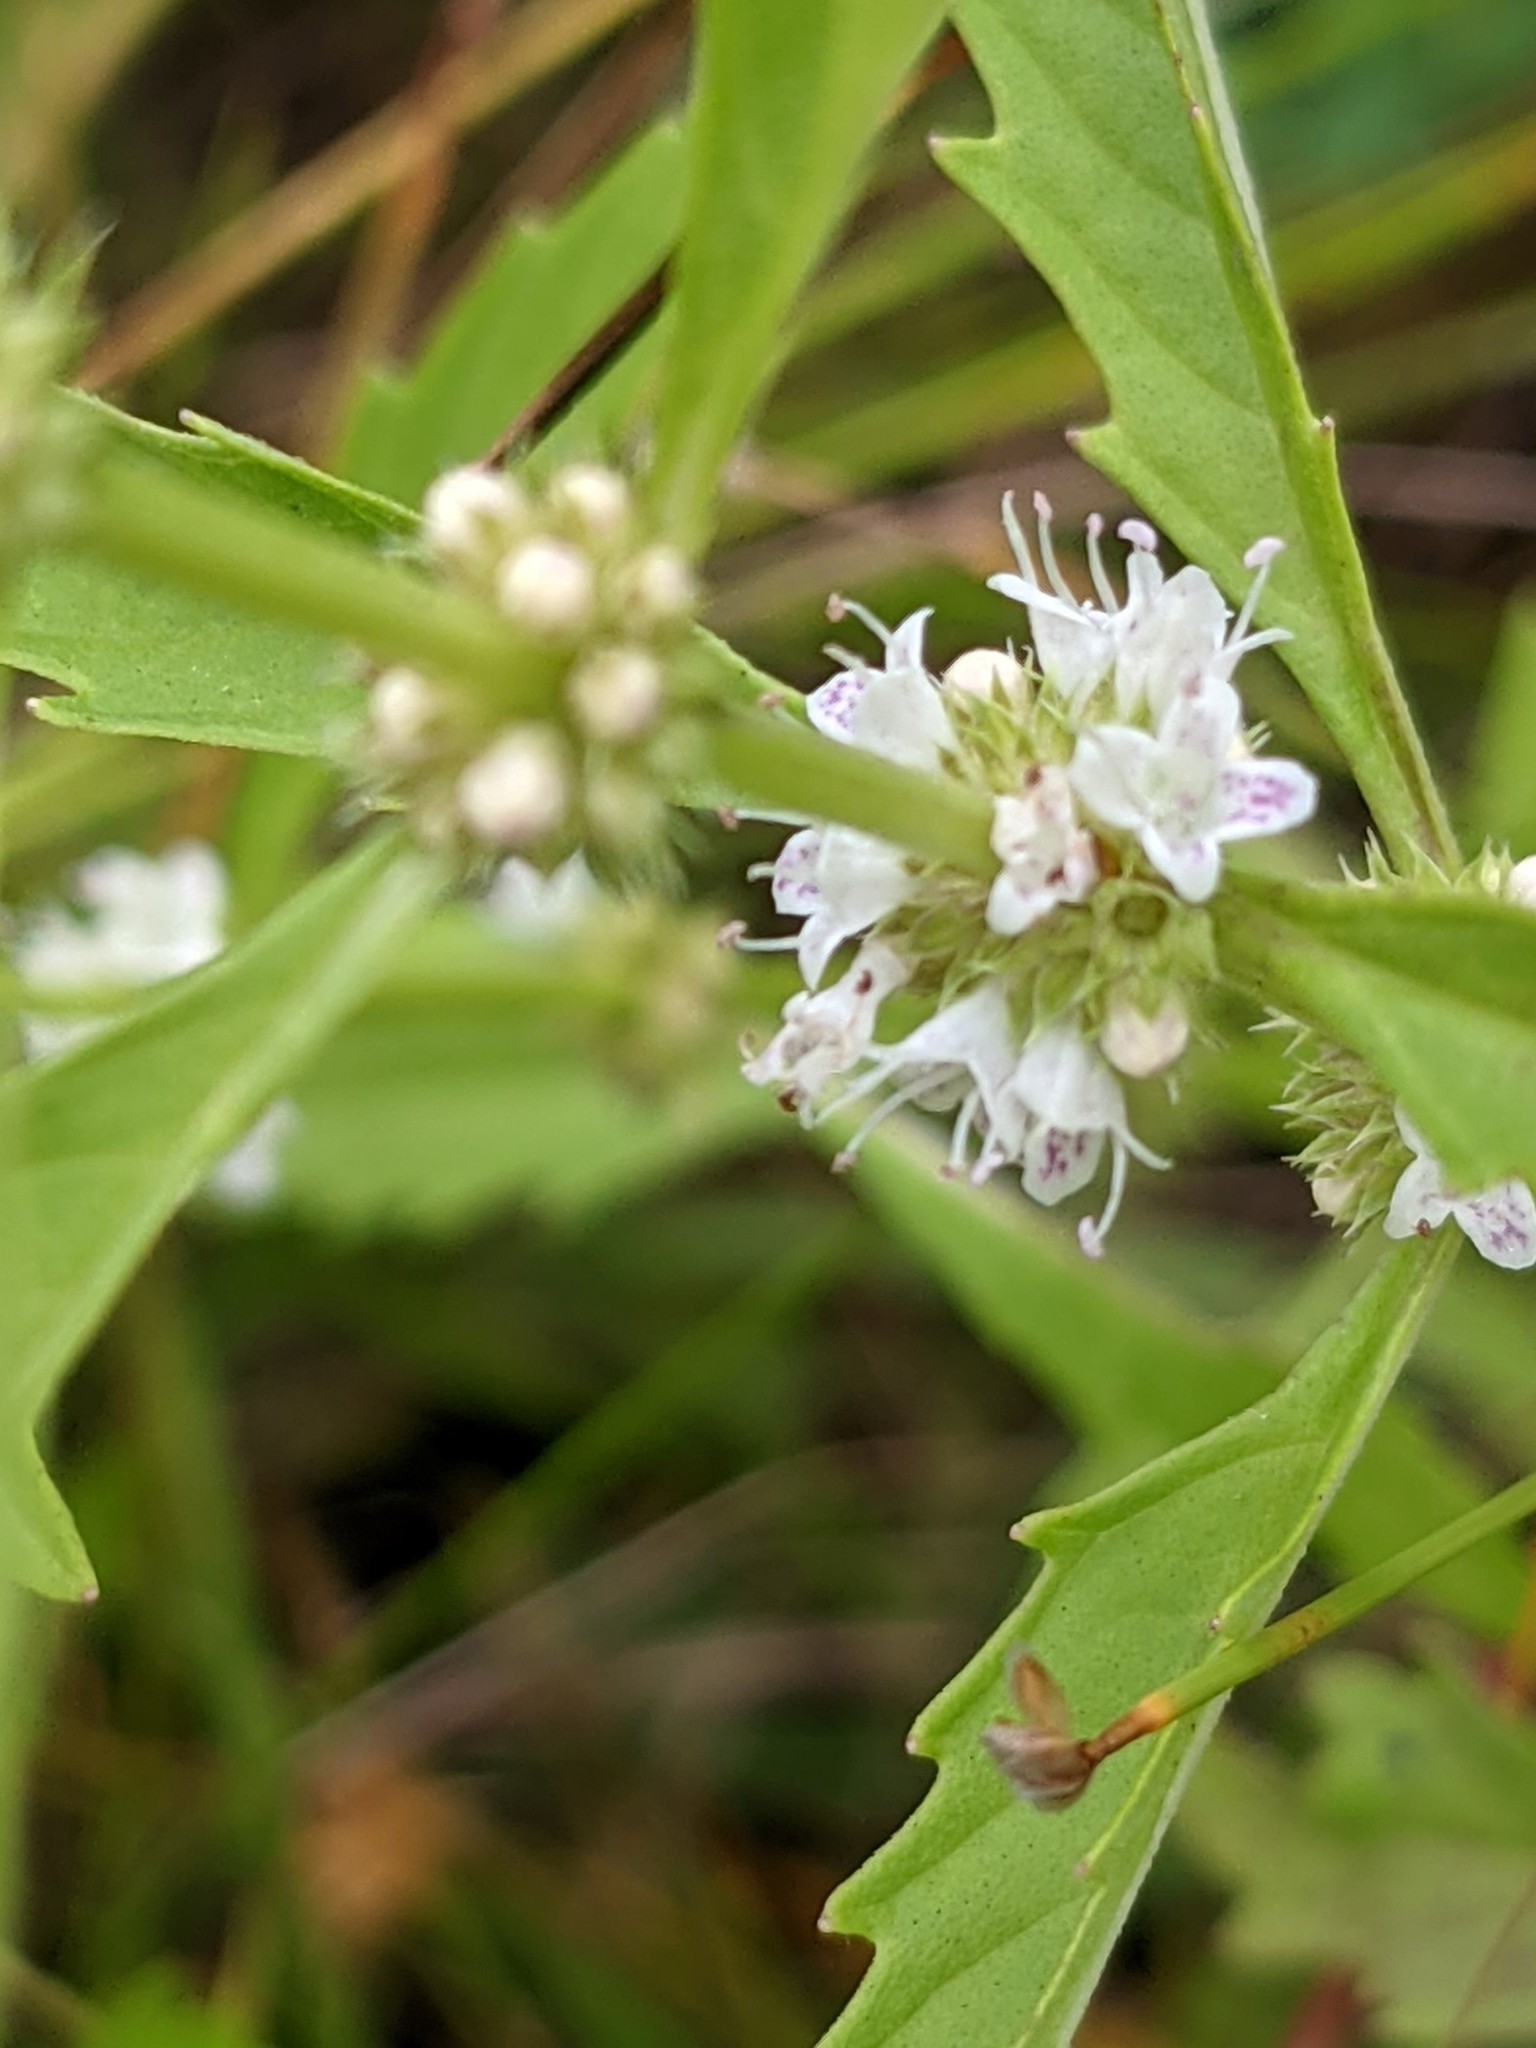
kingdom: Plantae
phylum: Tracheophyta
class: Magnoliopsida
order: Lamiales
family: Lamiaceae
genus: Lycopus
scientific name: Lycopus americanus
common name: American bugleweed
